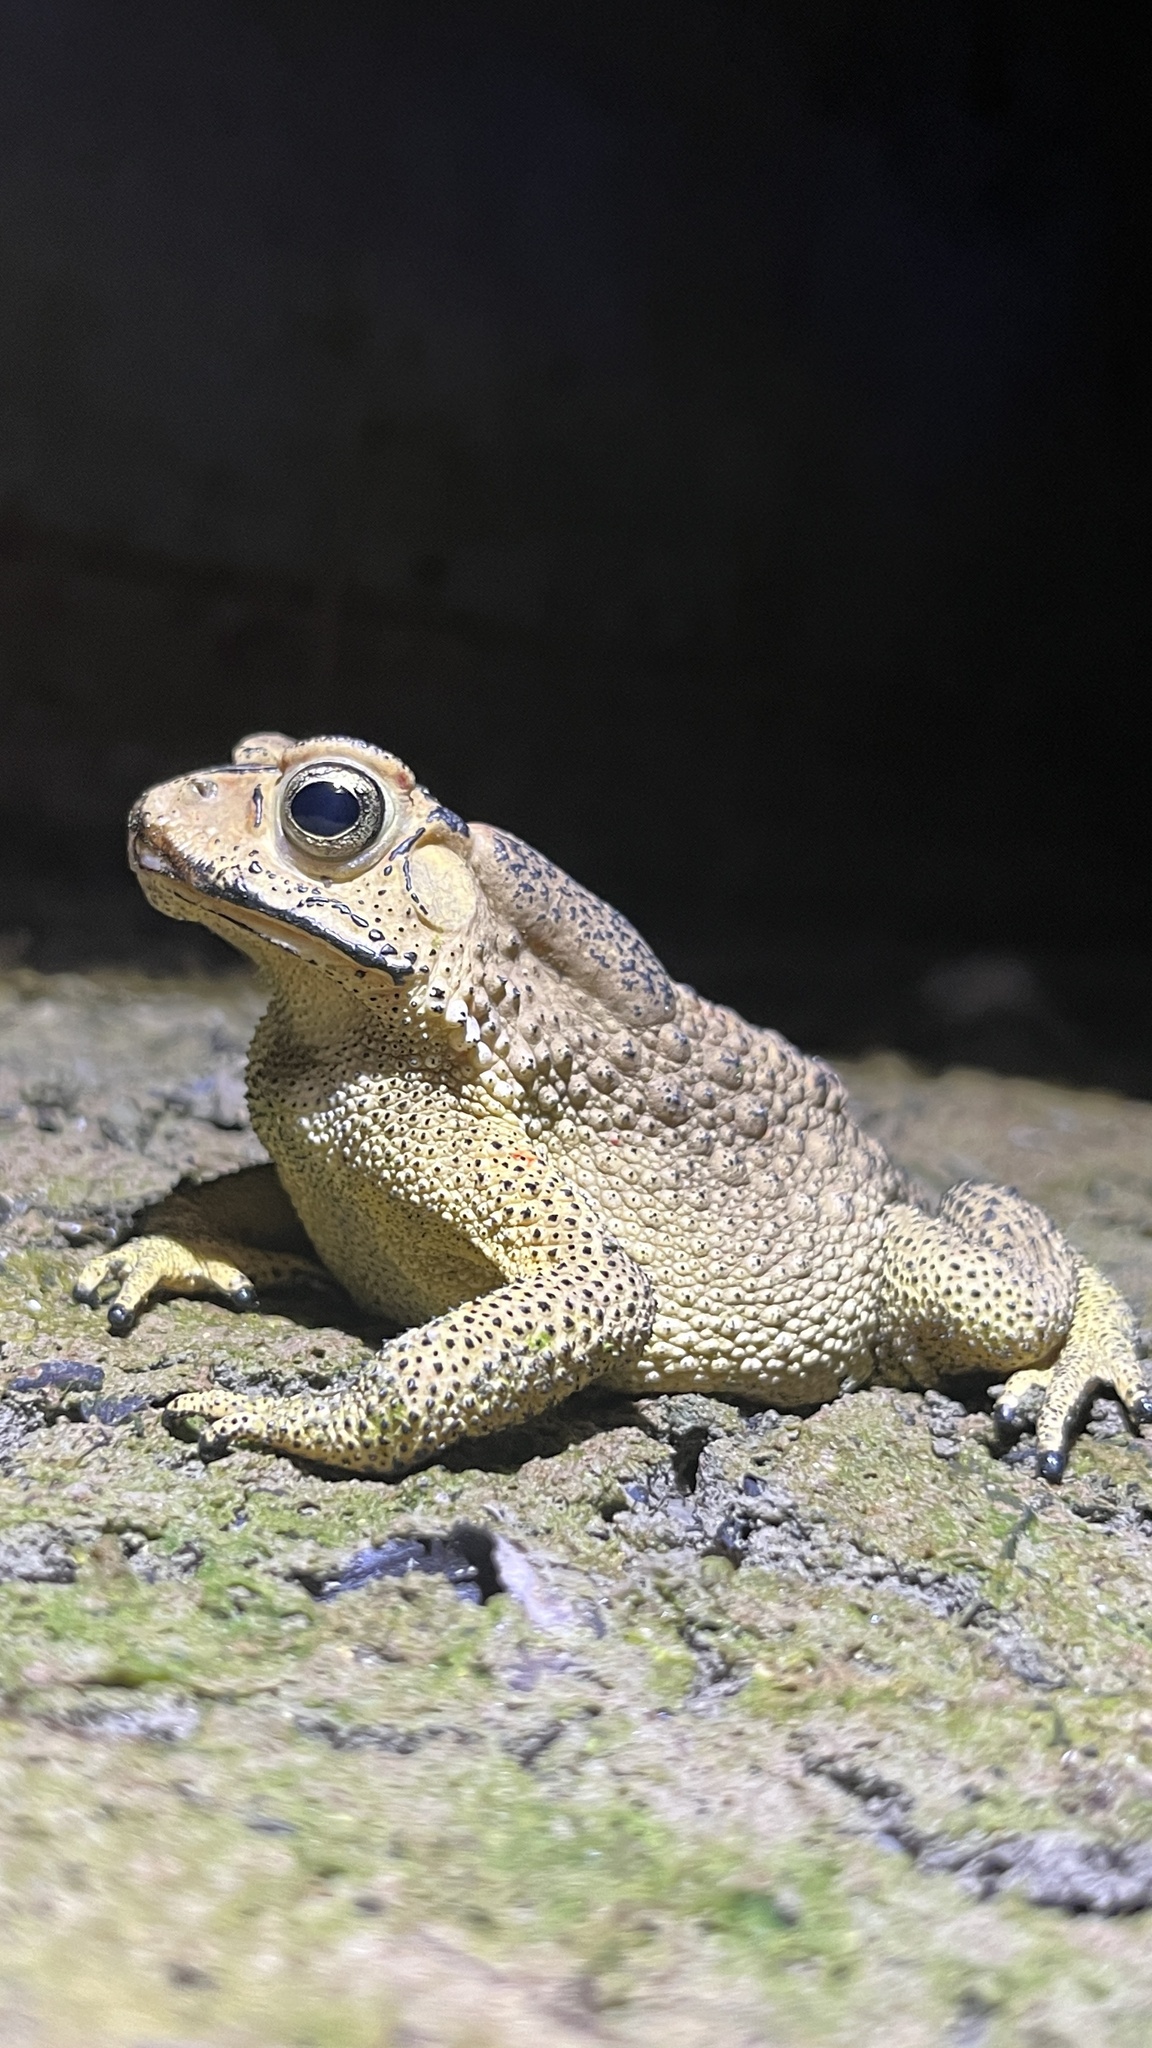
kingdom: Animalia
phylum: Chordata
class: Amphibia
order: Anura
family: Bufonidae
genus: Duttaphrynus
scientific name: Duttaphrynus melanostictus
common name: Common sunda toad
